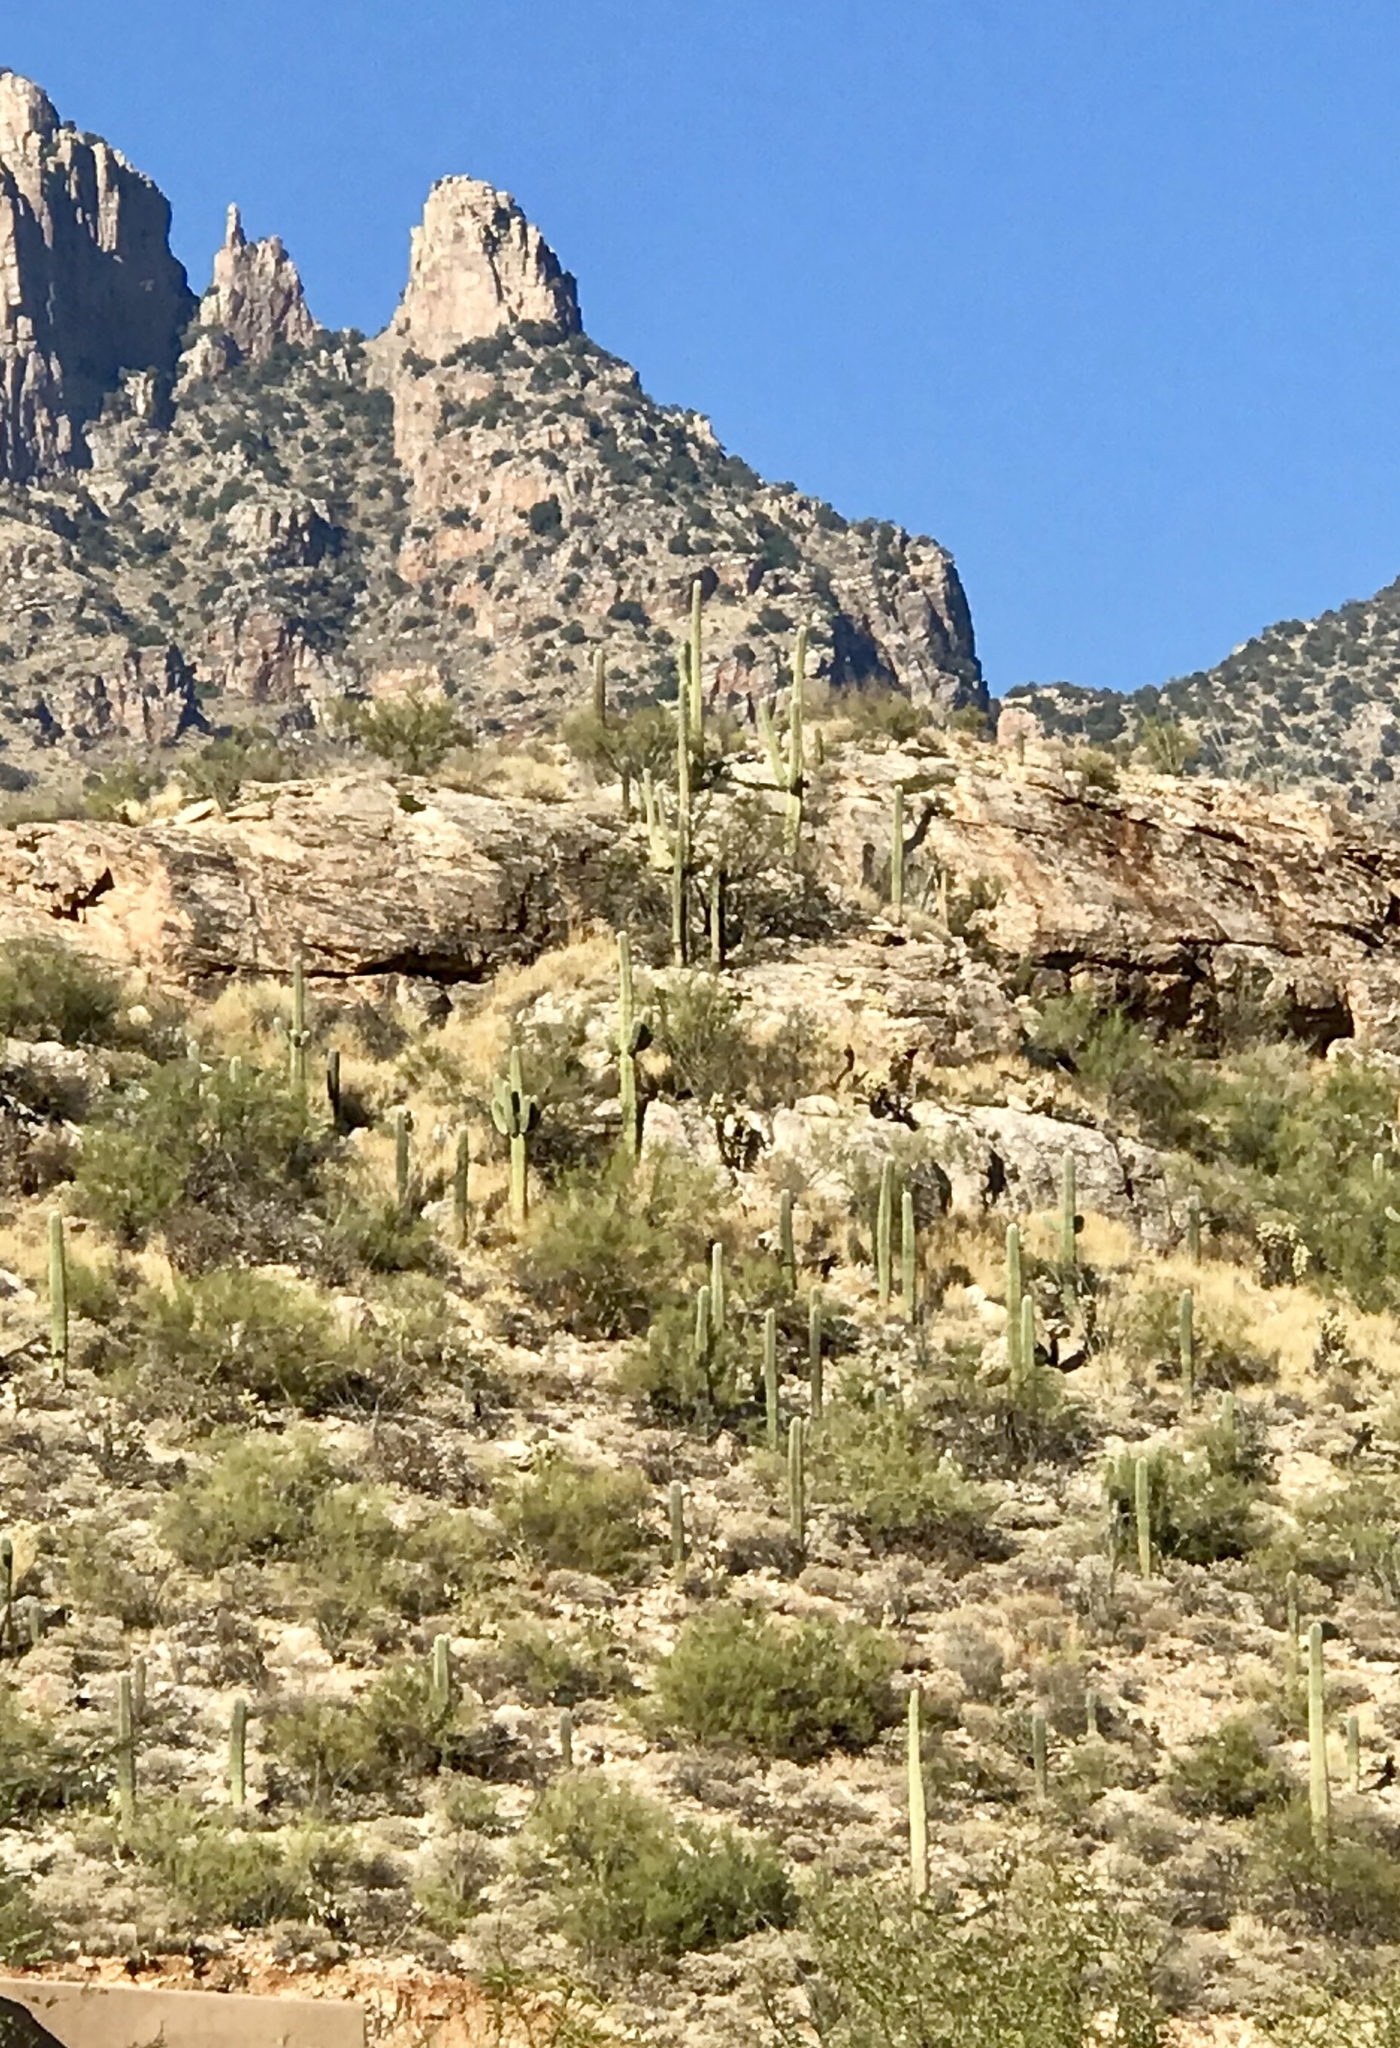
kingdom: Plantae
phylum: Tracheophyta
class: Magnoliopsida
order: Caryophyllales
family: Cactaceae
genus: Carnegiea
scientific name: Carnegiea gigantea
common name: Saguaro
